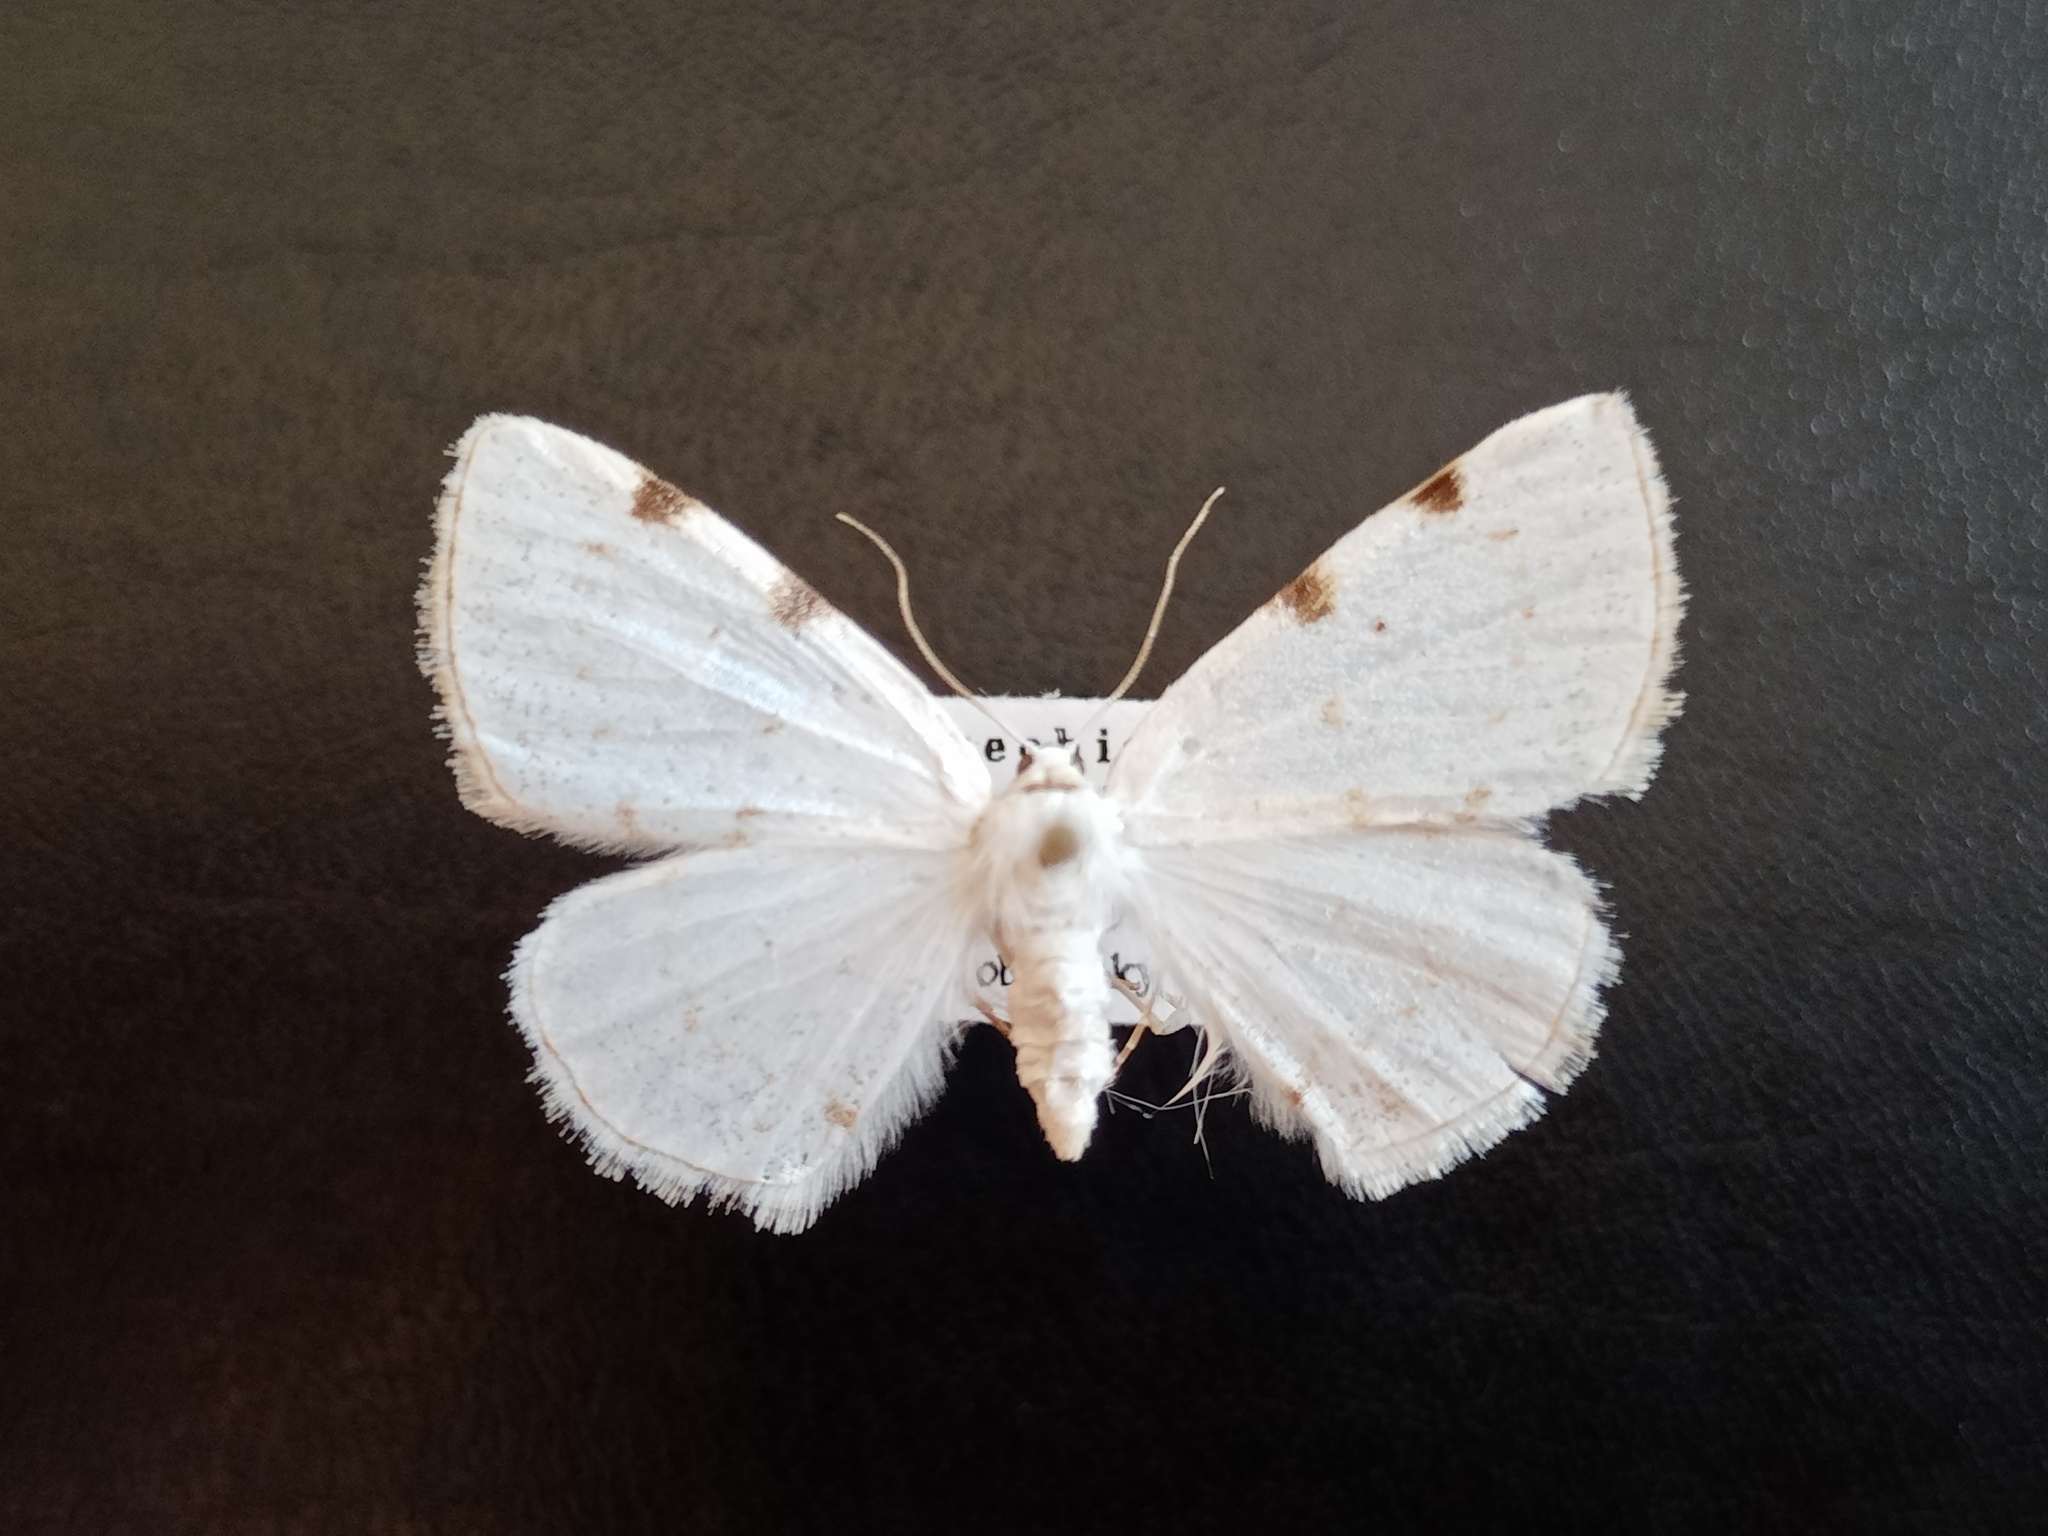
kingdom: Animalia
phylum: Arthropoda
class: Insecta
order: Lepidoptera
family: Geometridae
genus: Lomographa
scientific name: Lomographa bimaculata
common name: White-pinion spotted
